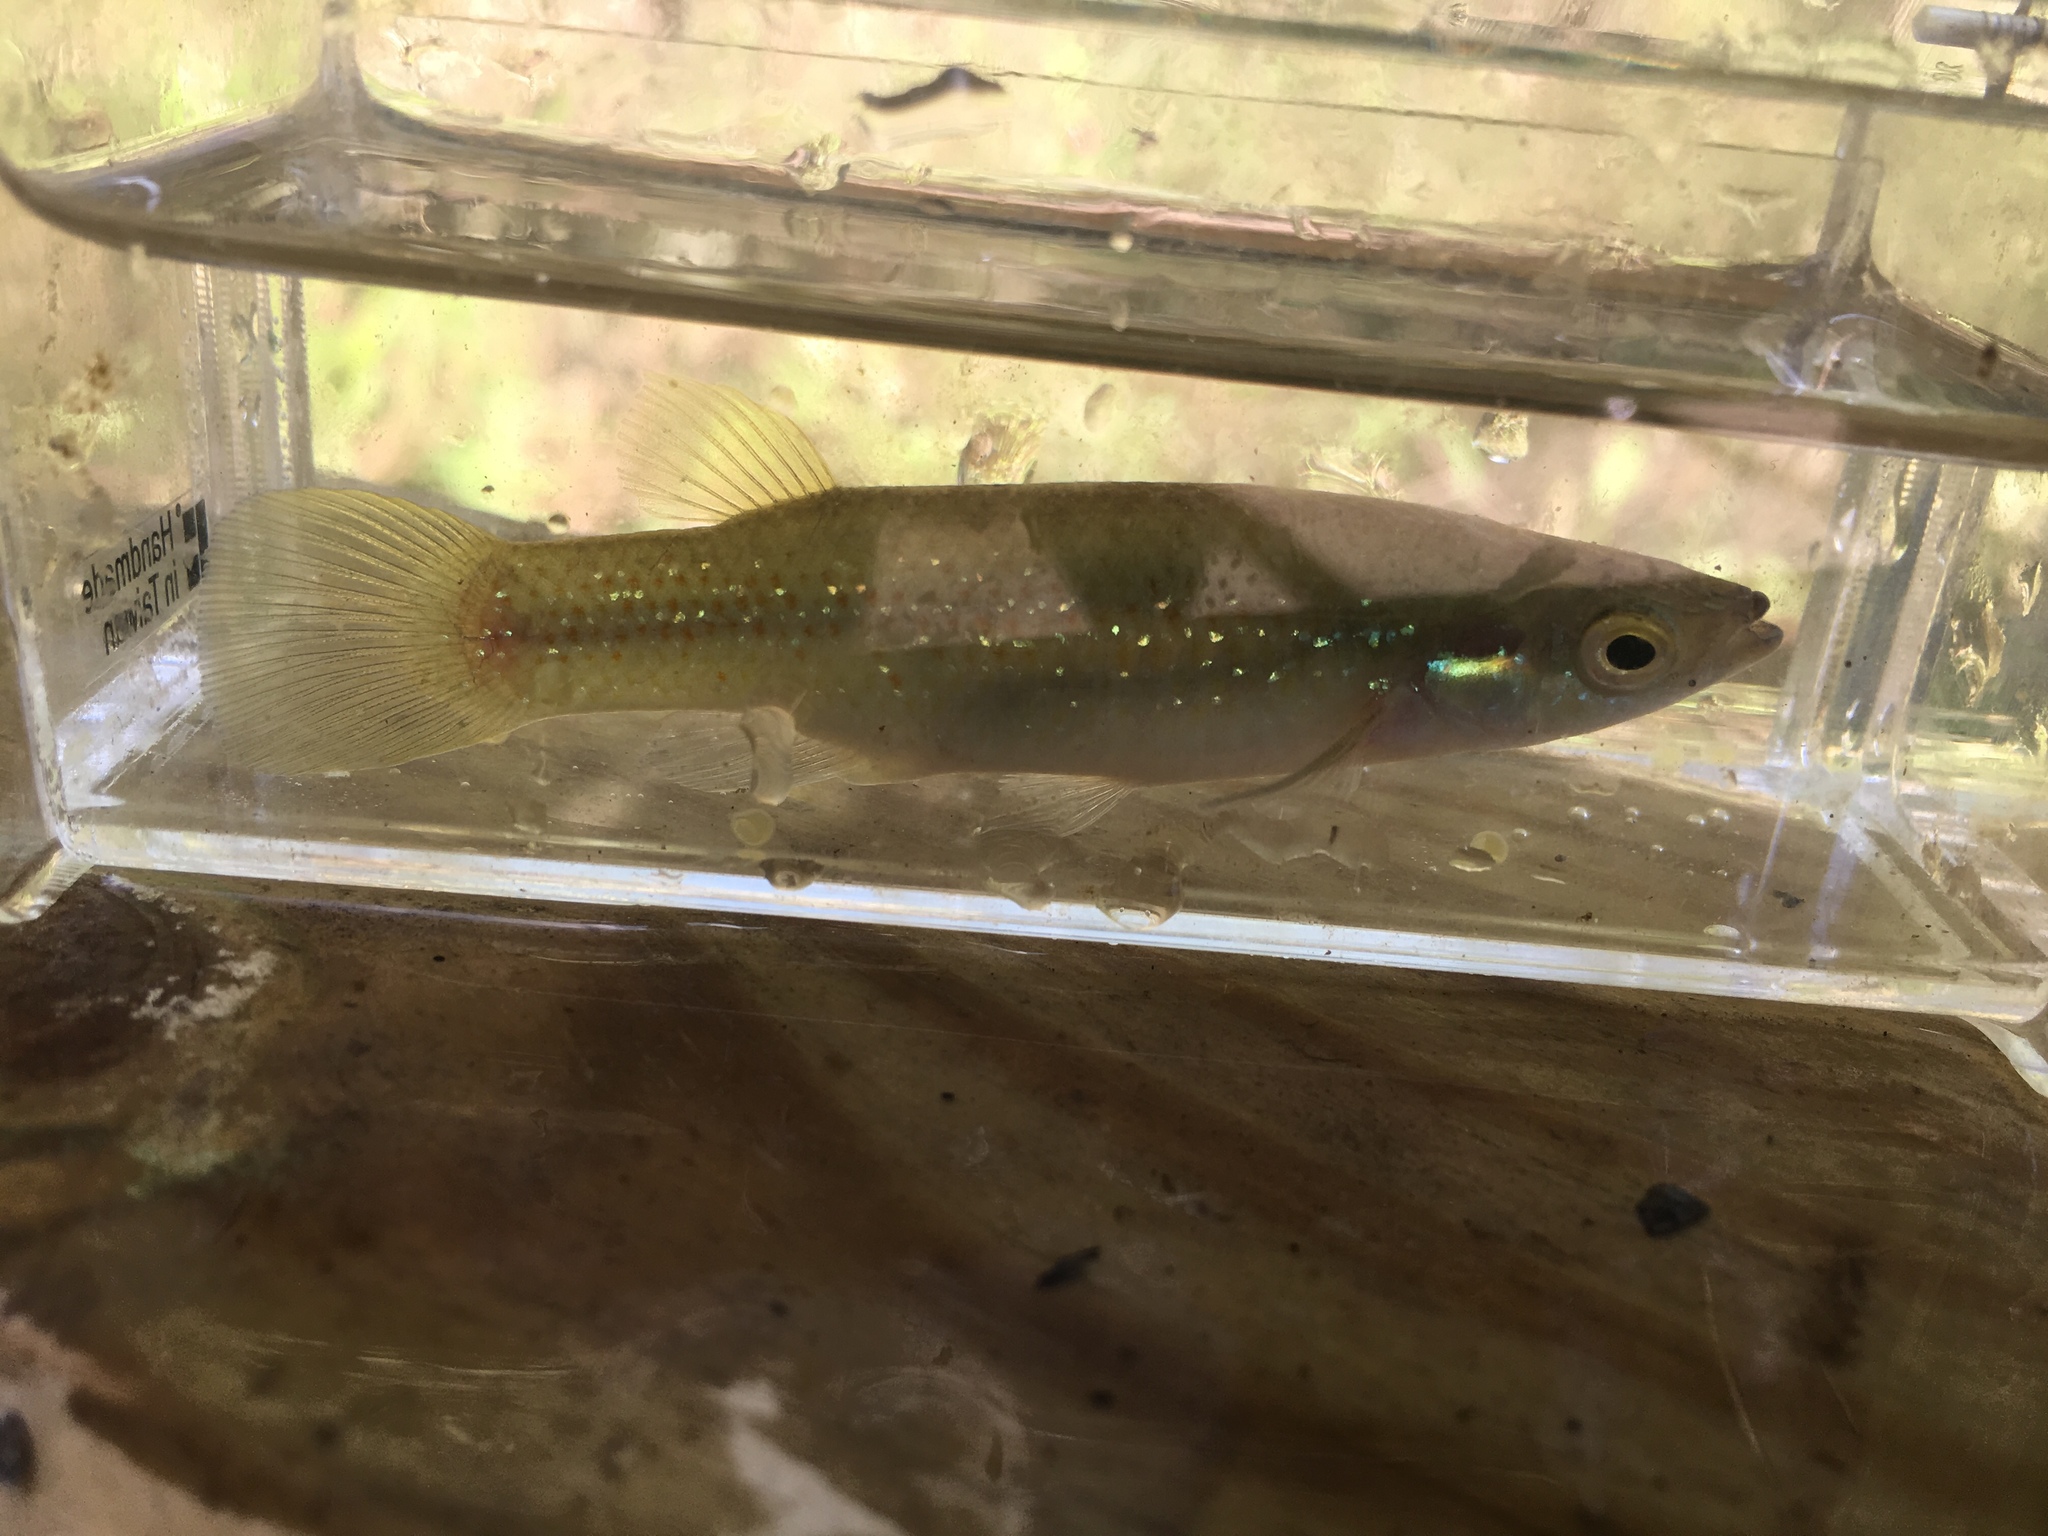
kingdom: Animalia
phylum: Chordata
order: Cyprinodontiformes
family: Fundulidae
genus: Fundulus
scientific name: Fundulus chrysotus
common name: Golden topminnow
